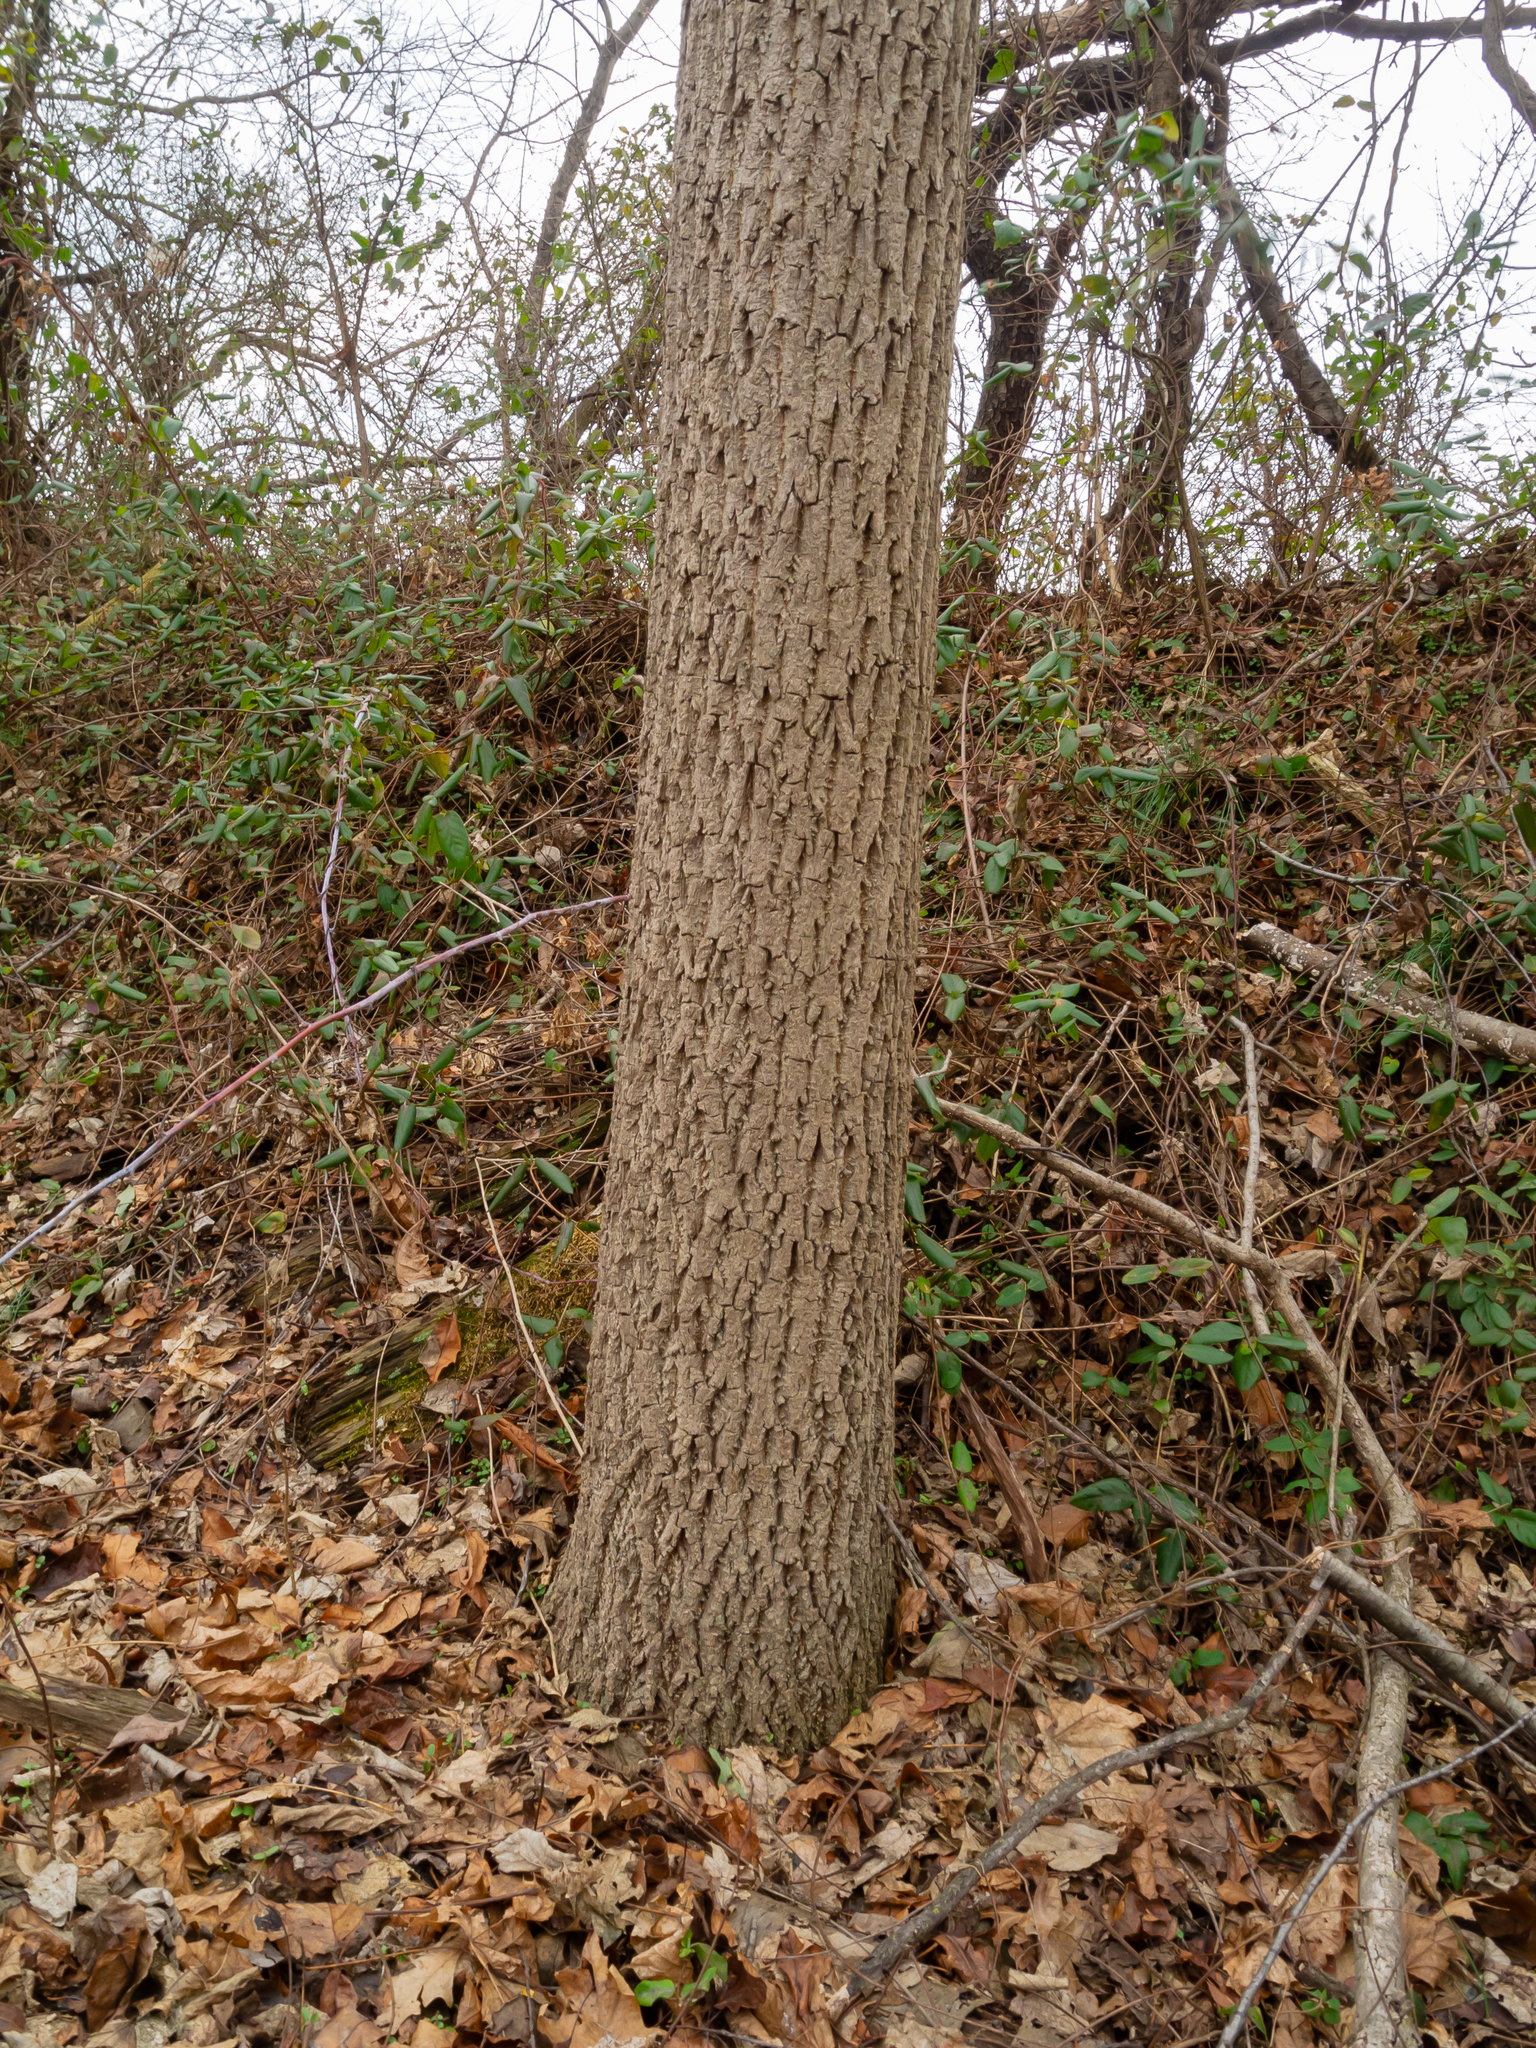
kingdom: Plantae
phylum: Tracheophyta
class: Magnoliopsida
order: Fagales
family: Juglandaceae
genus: Juglans
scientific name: Juglans nigra
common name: Black walnut
